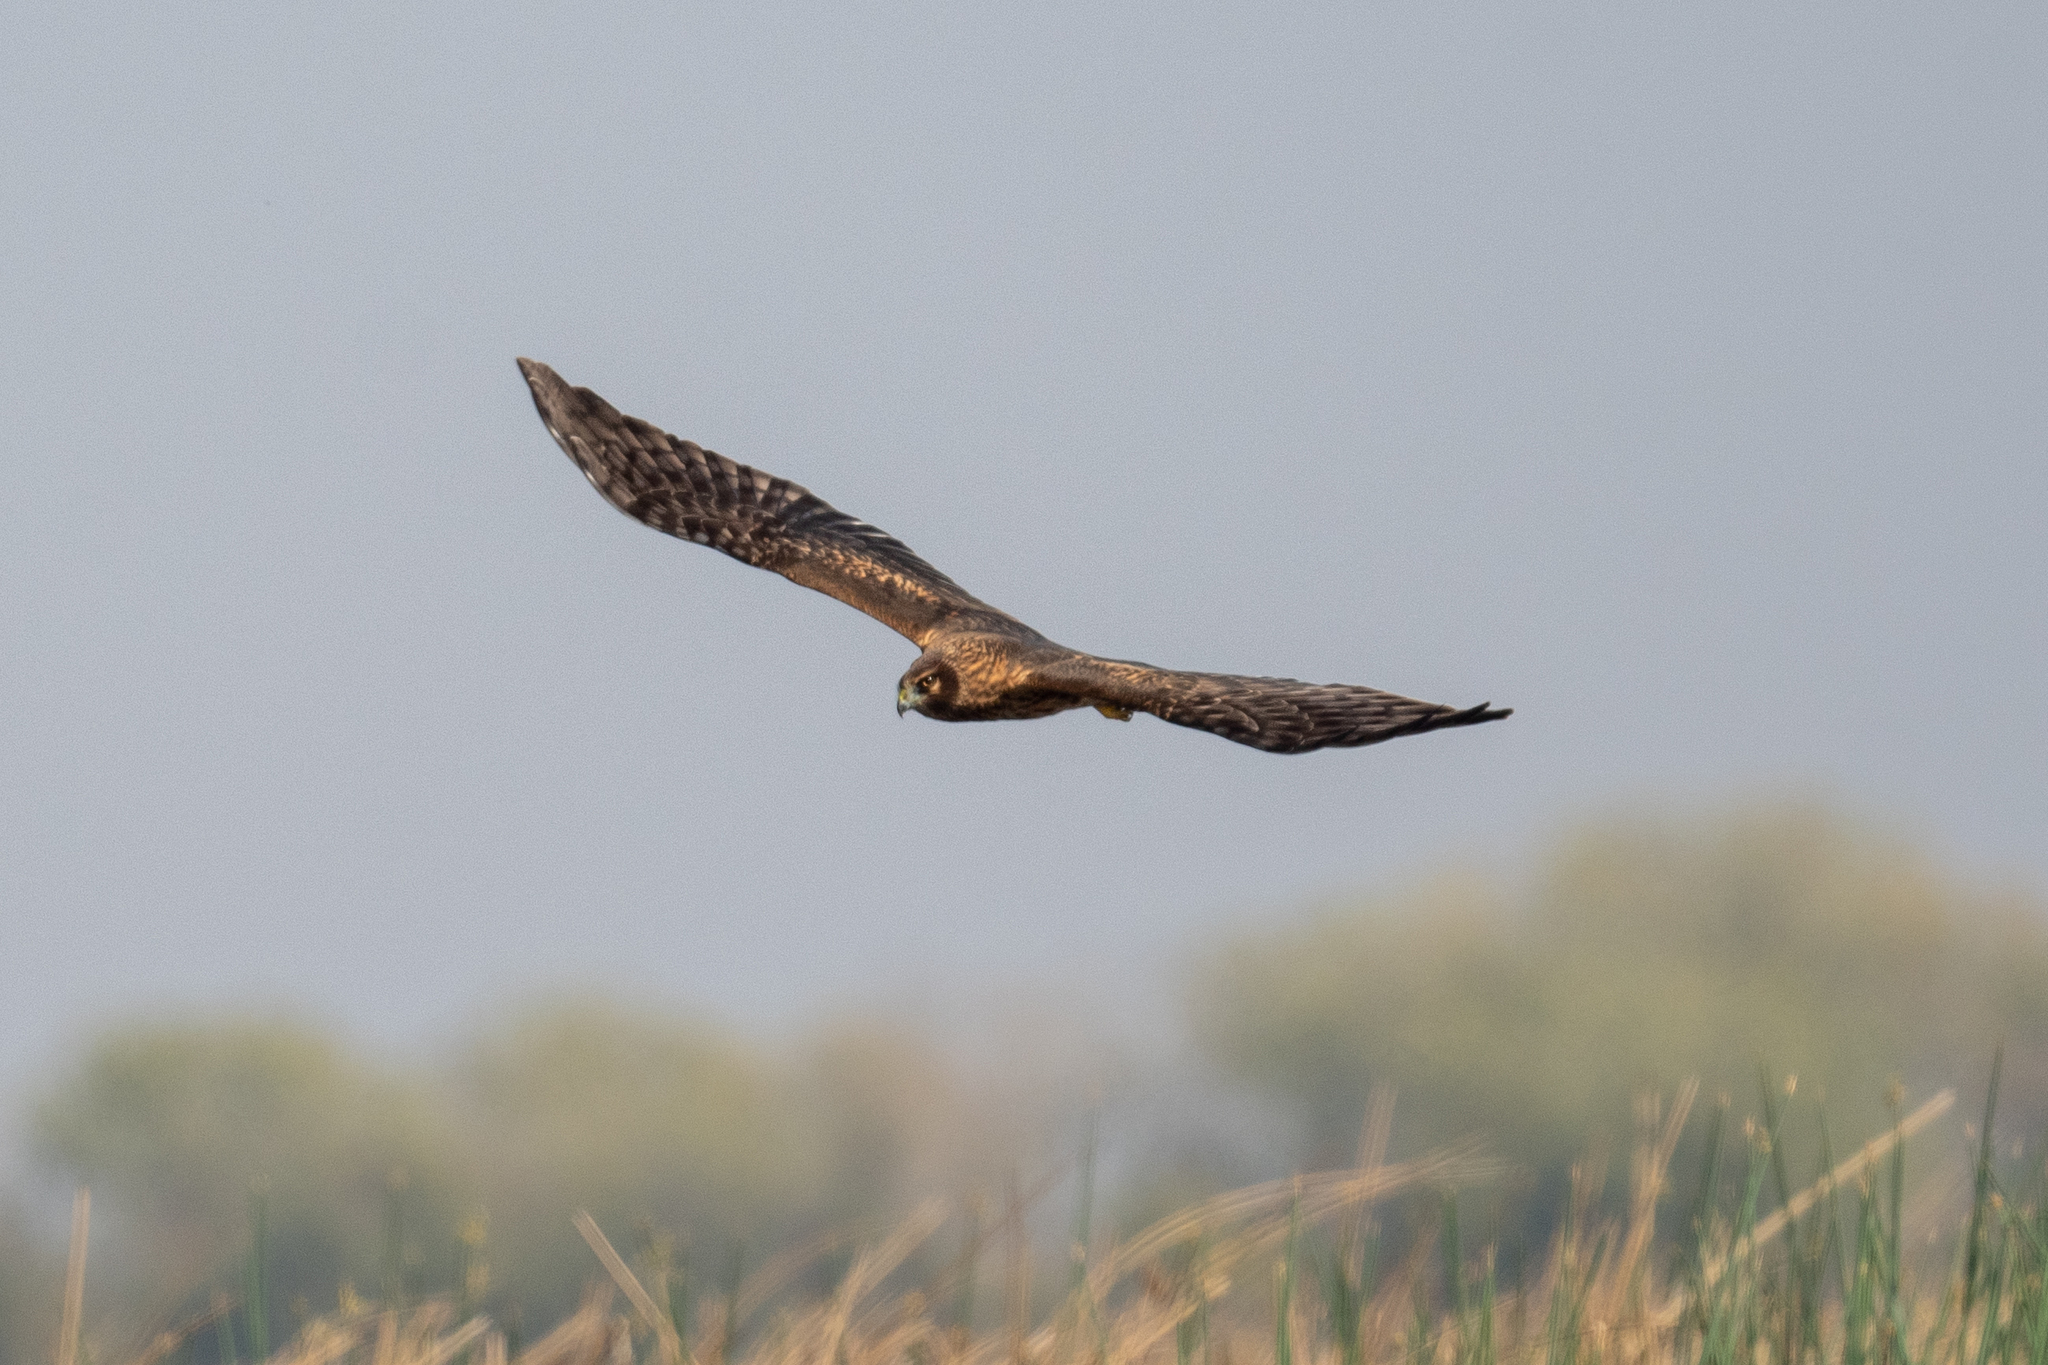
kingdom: Animalia
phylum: Chordata
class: Aves
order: Accipitriformes
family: Accipitridae
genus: Circus
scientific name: Circus cyaneus
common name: Hen harrier
